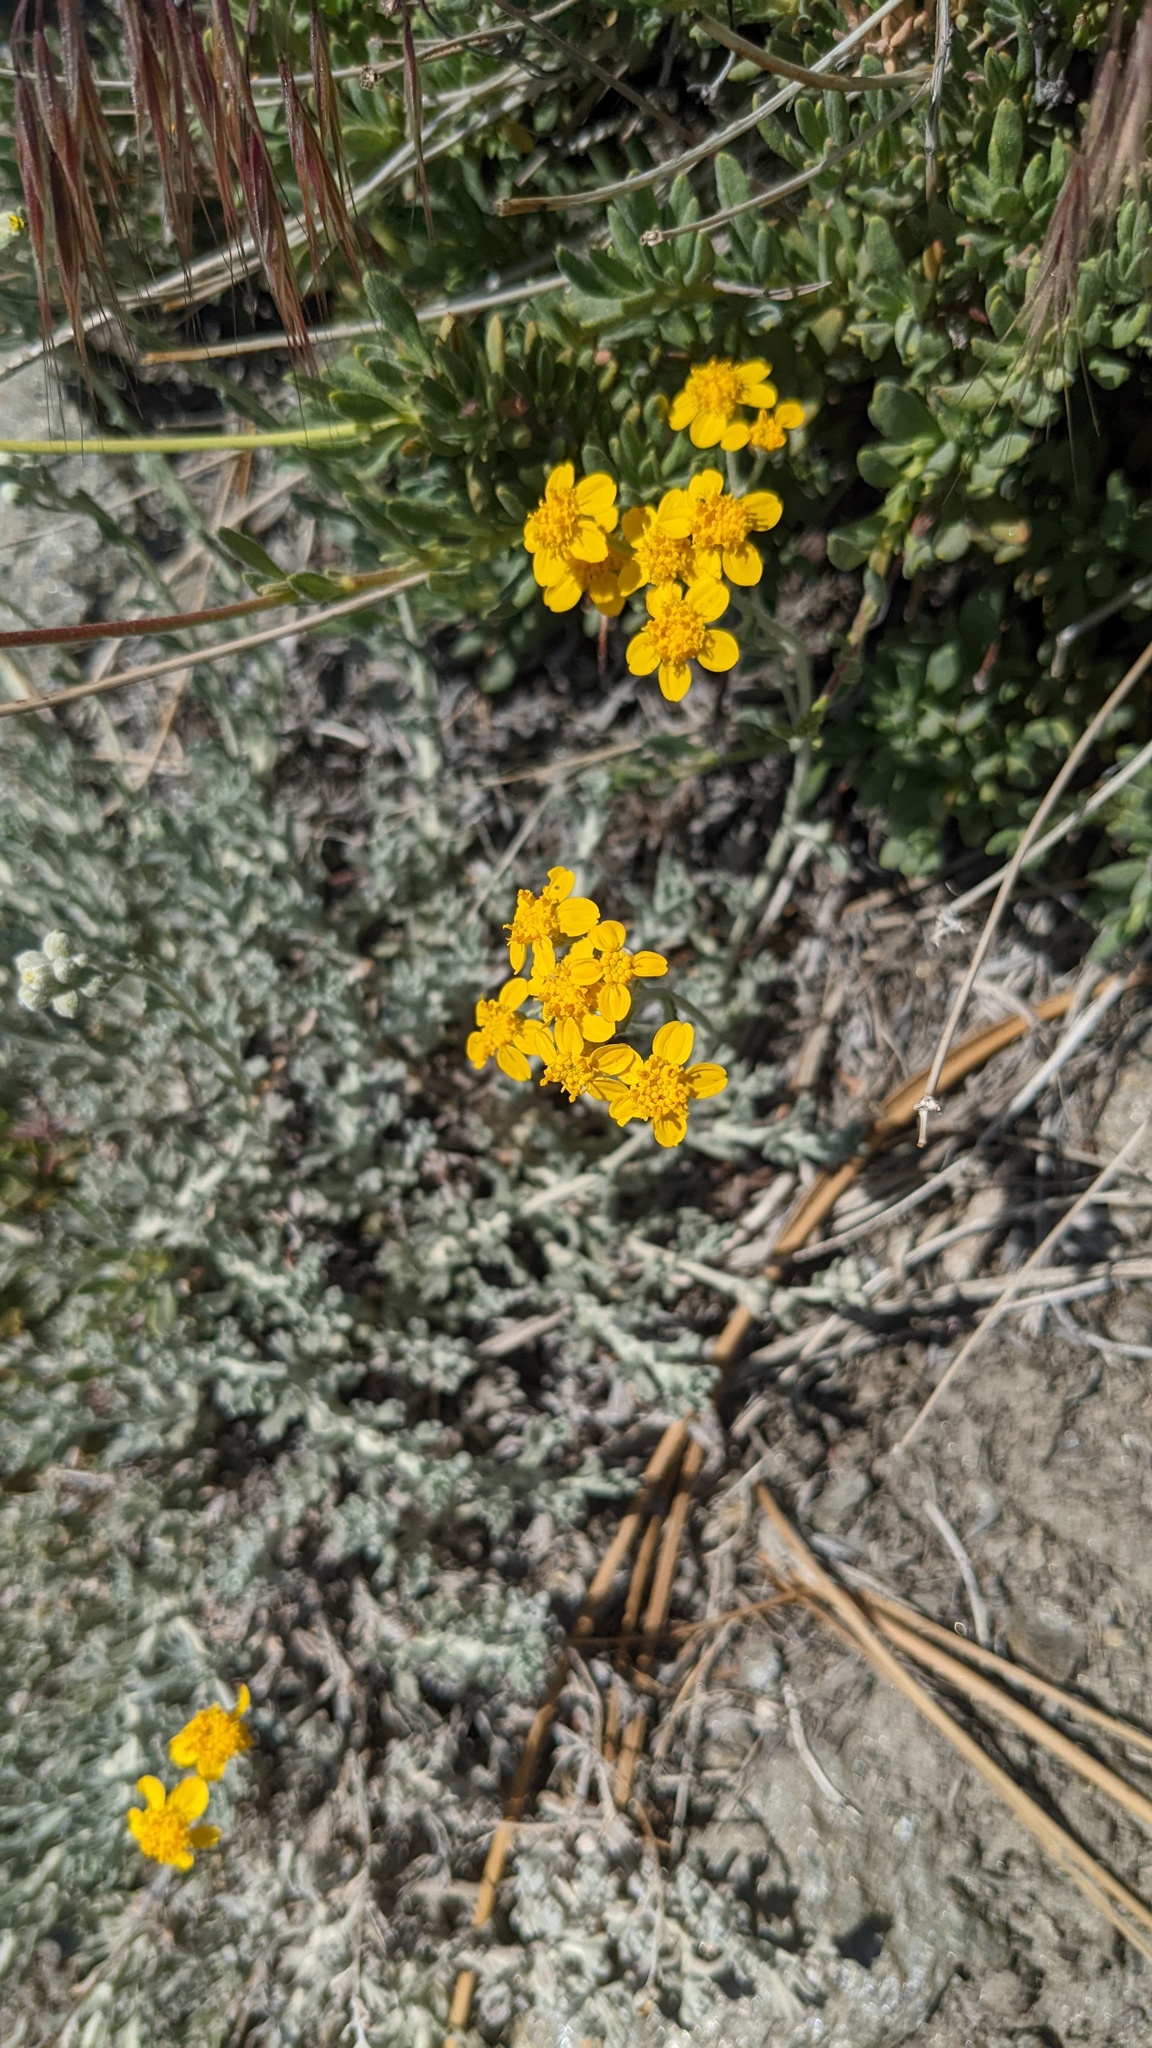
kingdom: Plantae
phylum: Tracheophyta
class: Magnoliopsida
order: Asterales
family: Asteraceae
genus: Eriophyllum
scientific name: Eriophyllum confertiflorum
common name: Golden-yarrow
